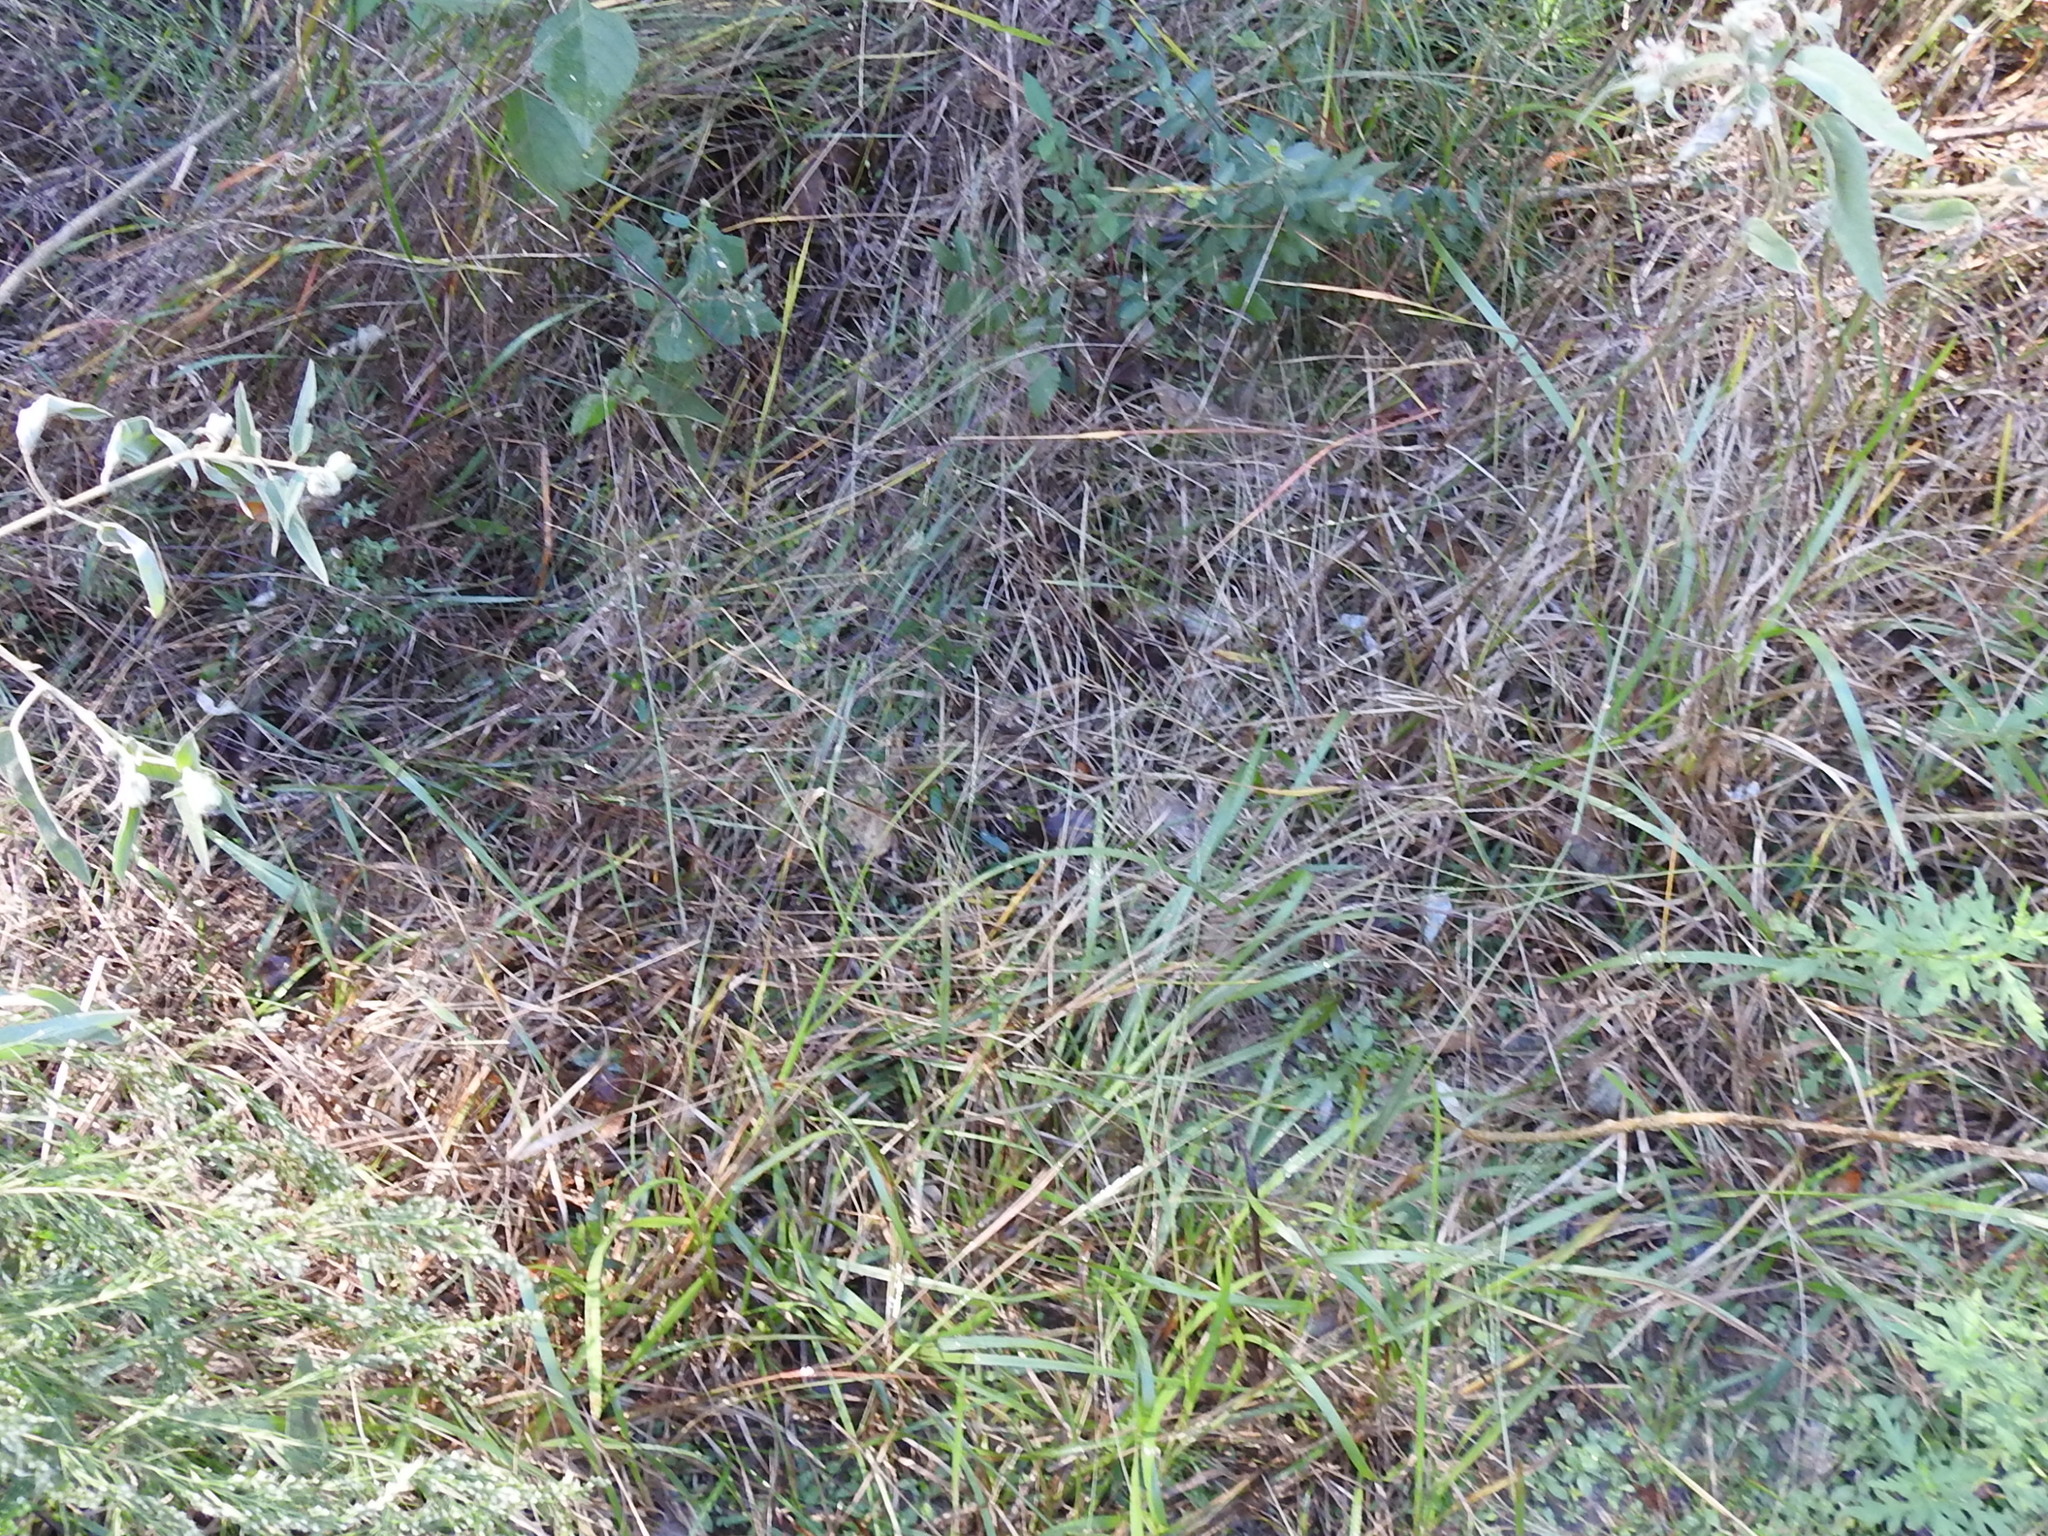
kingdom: Plantae
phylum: Tracheophyta
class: Liliopsida
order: Poales
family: Poaceae
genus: Kellochloa
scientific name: Kellochloa brachyantha
